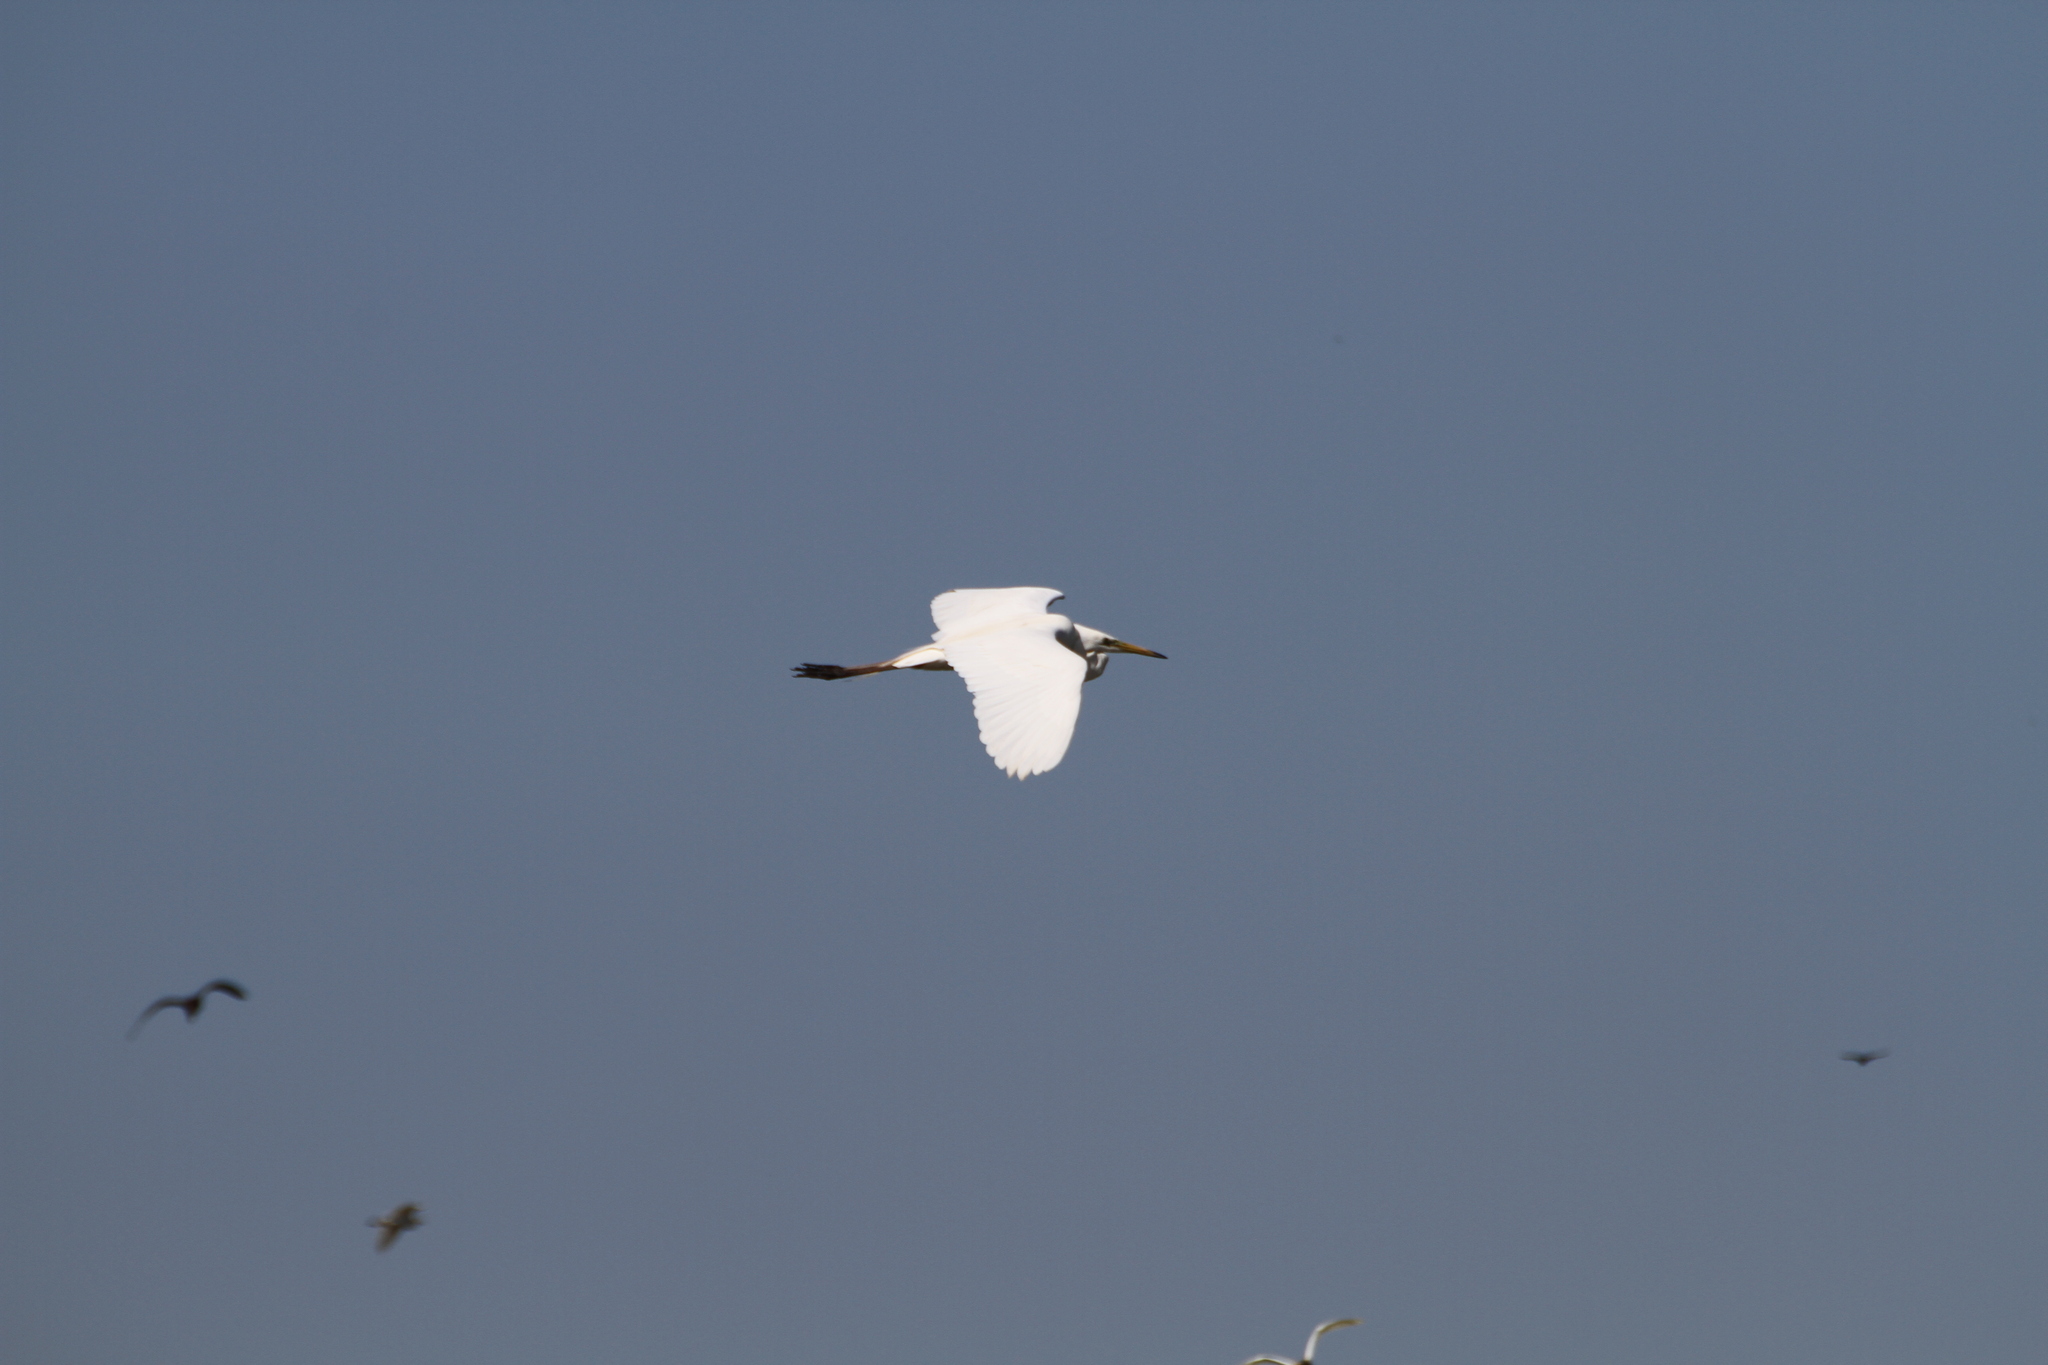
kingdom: Animalia
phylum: Chordata
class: Aves
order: Pelecaniformes
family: Ardeidae
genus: Ardea
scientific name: Ardea alba
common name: Great egret
